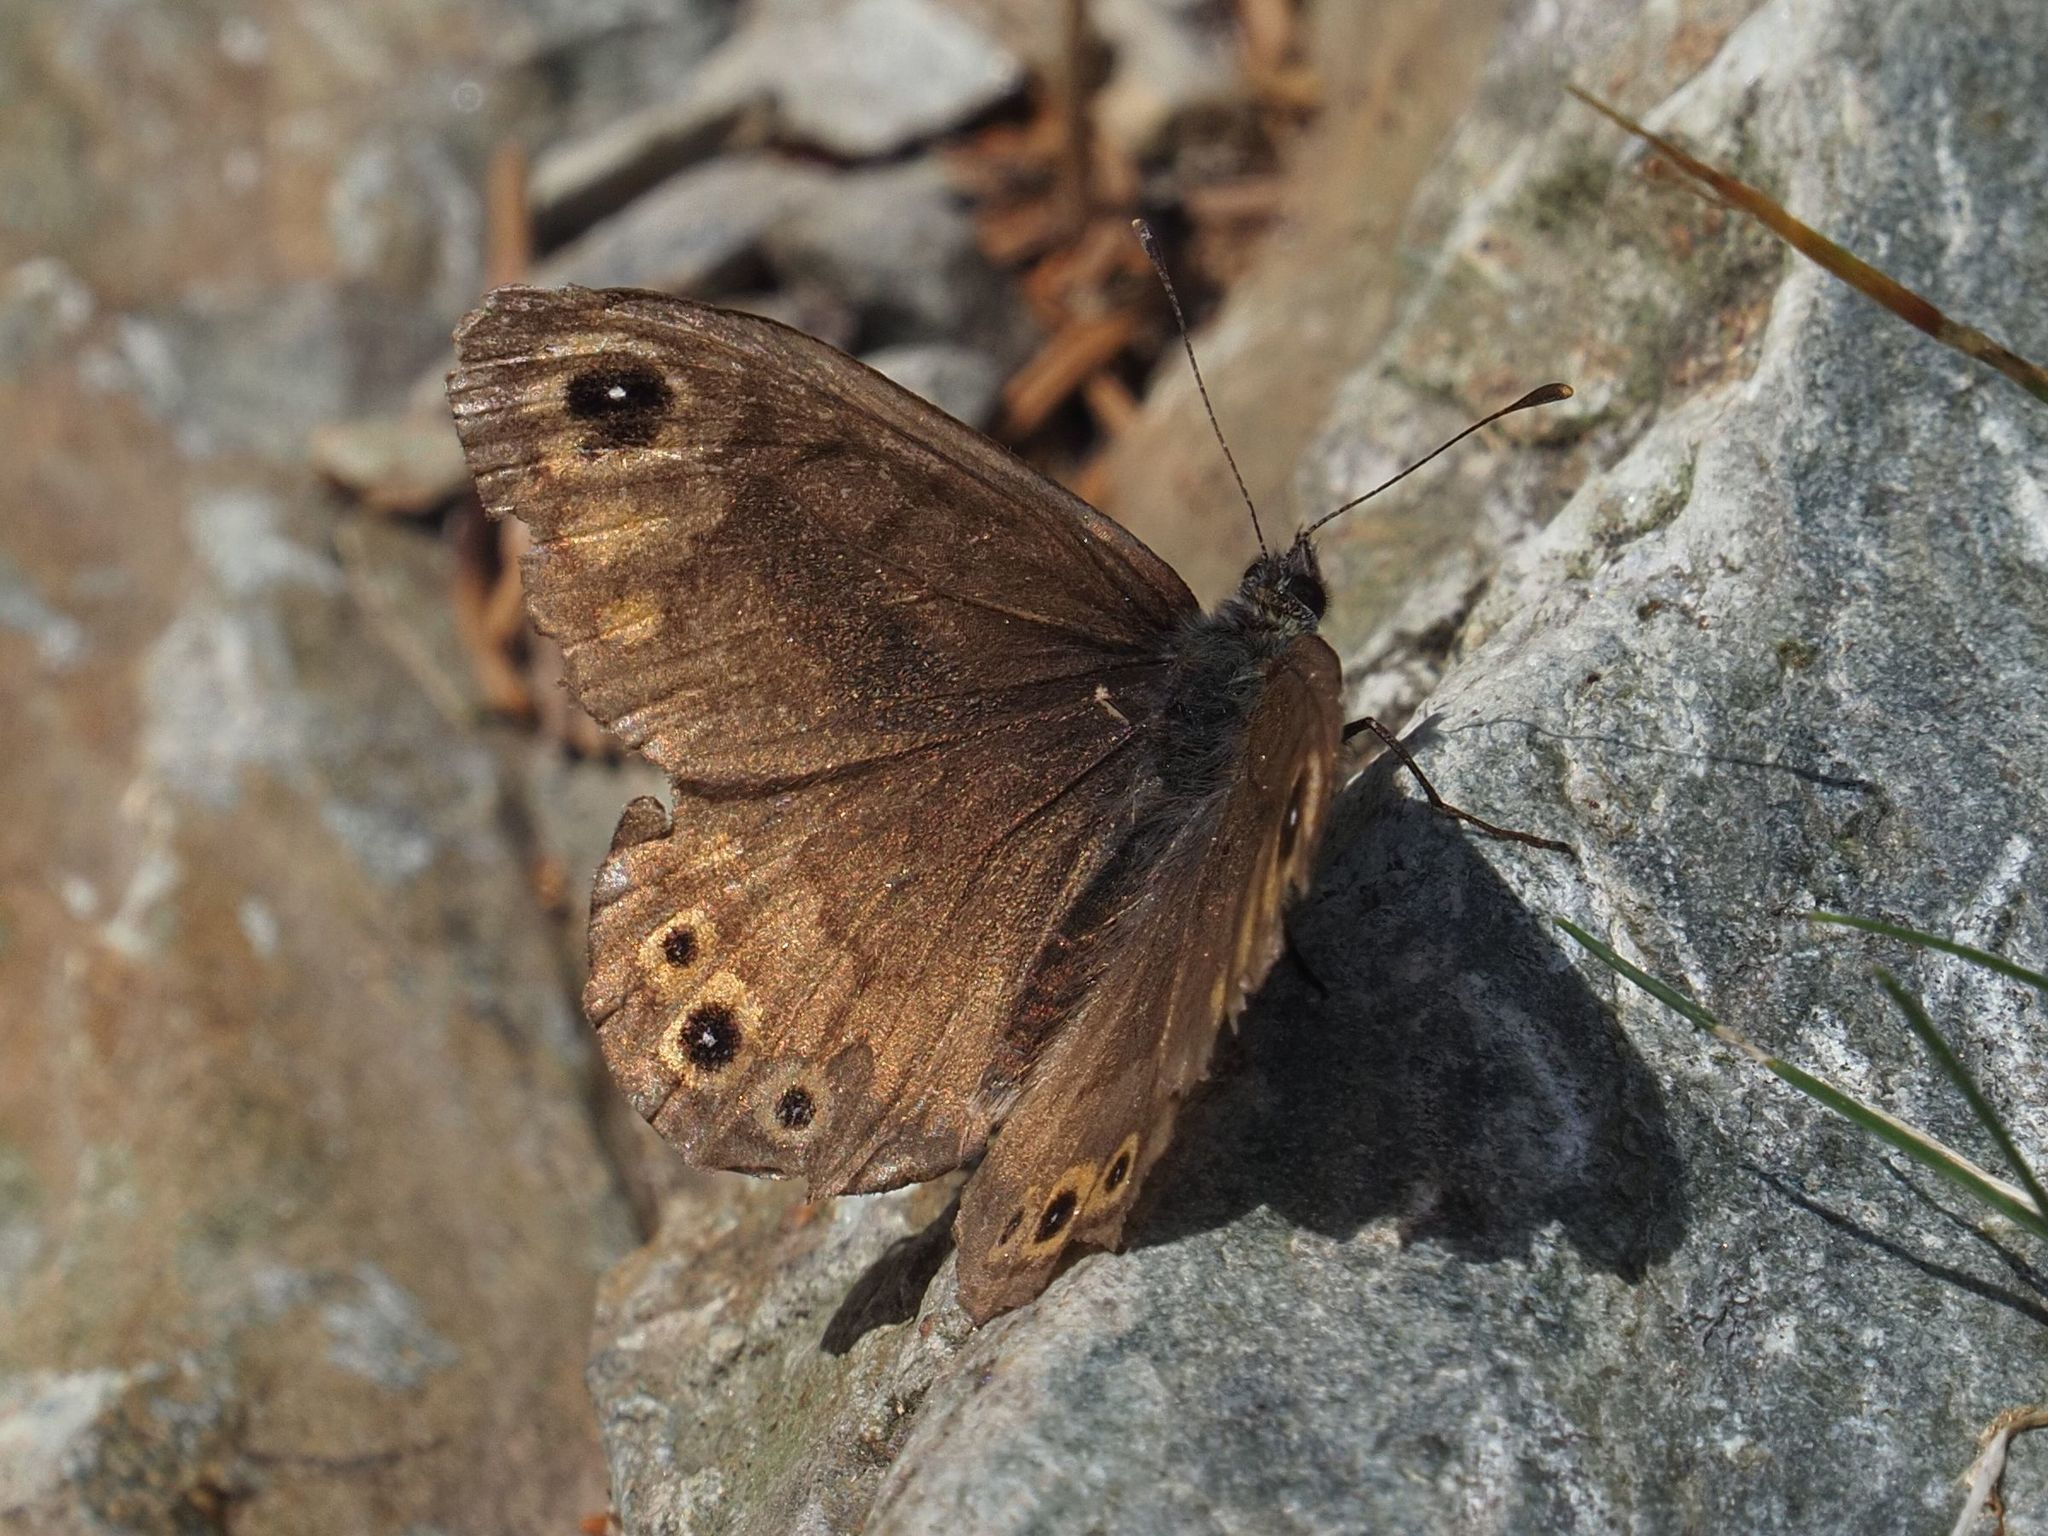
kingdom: Animalia
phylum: Arthropoda
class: Insecta
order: Lepidoptera
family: Nymphalidae
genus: Pararge
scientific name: Pararge petropolitana
